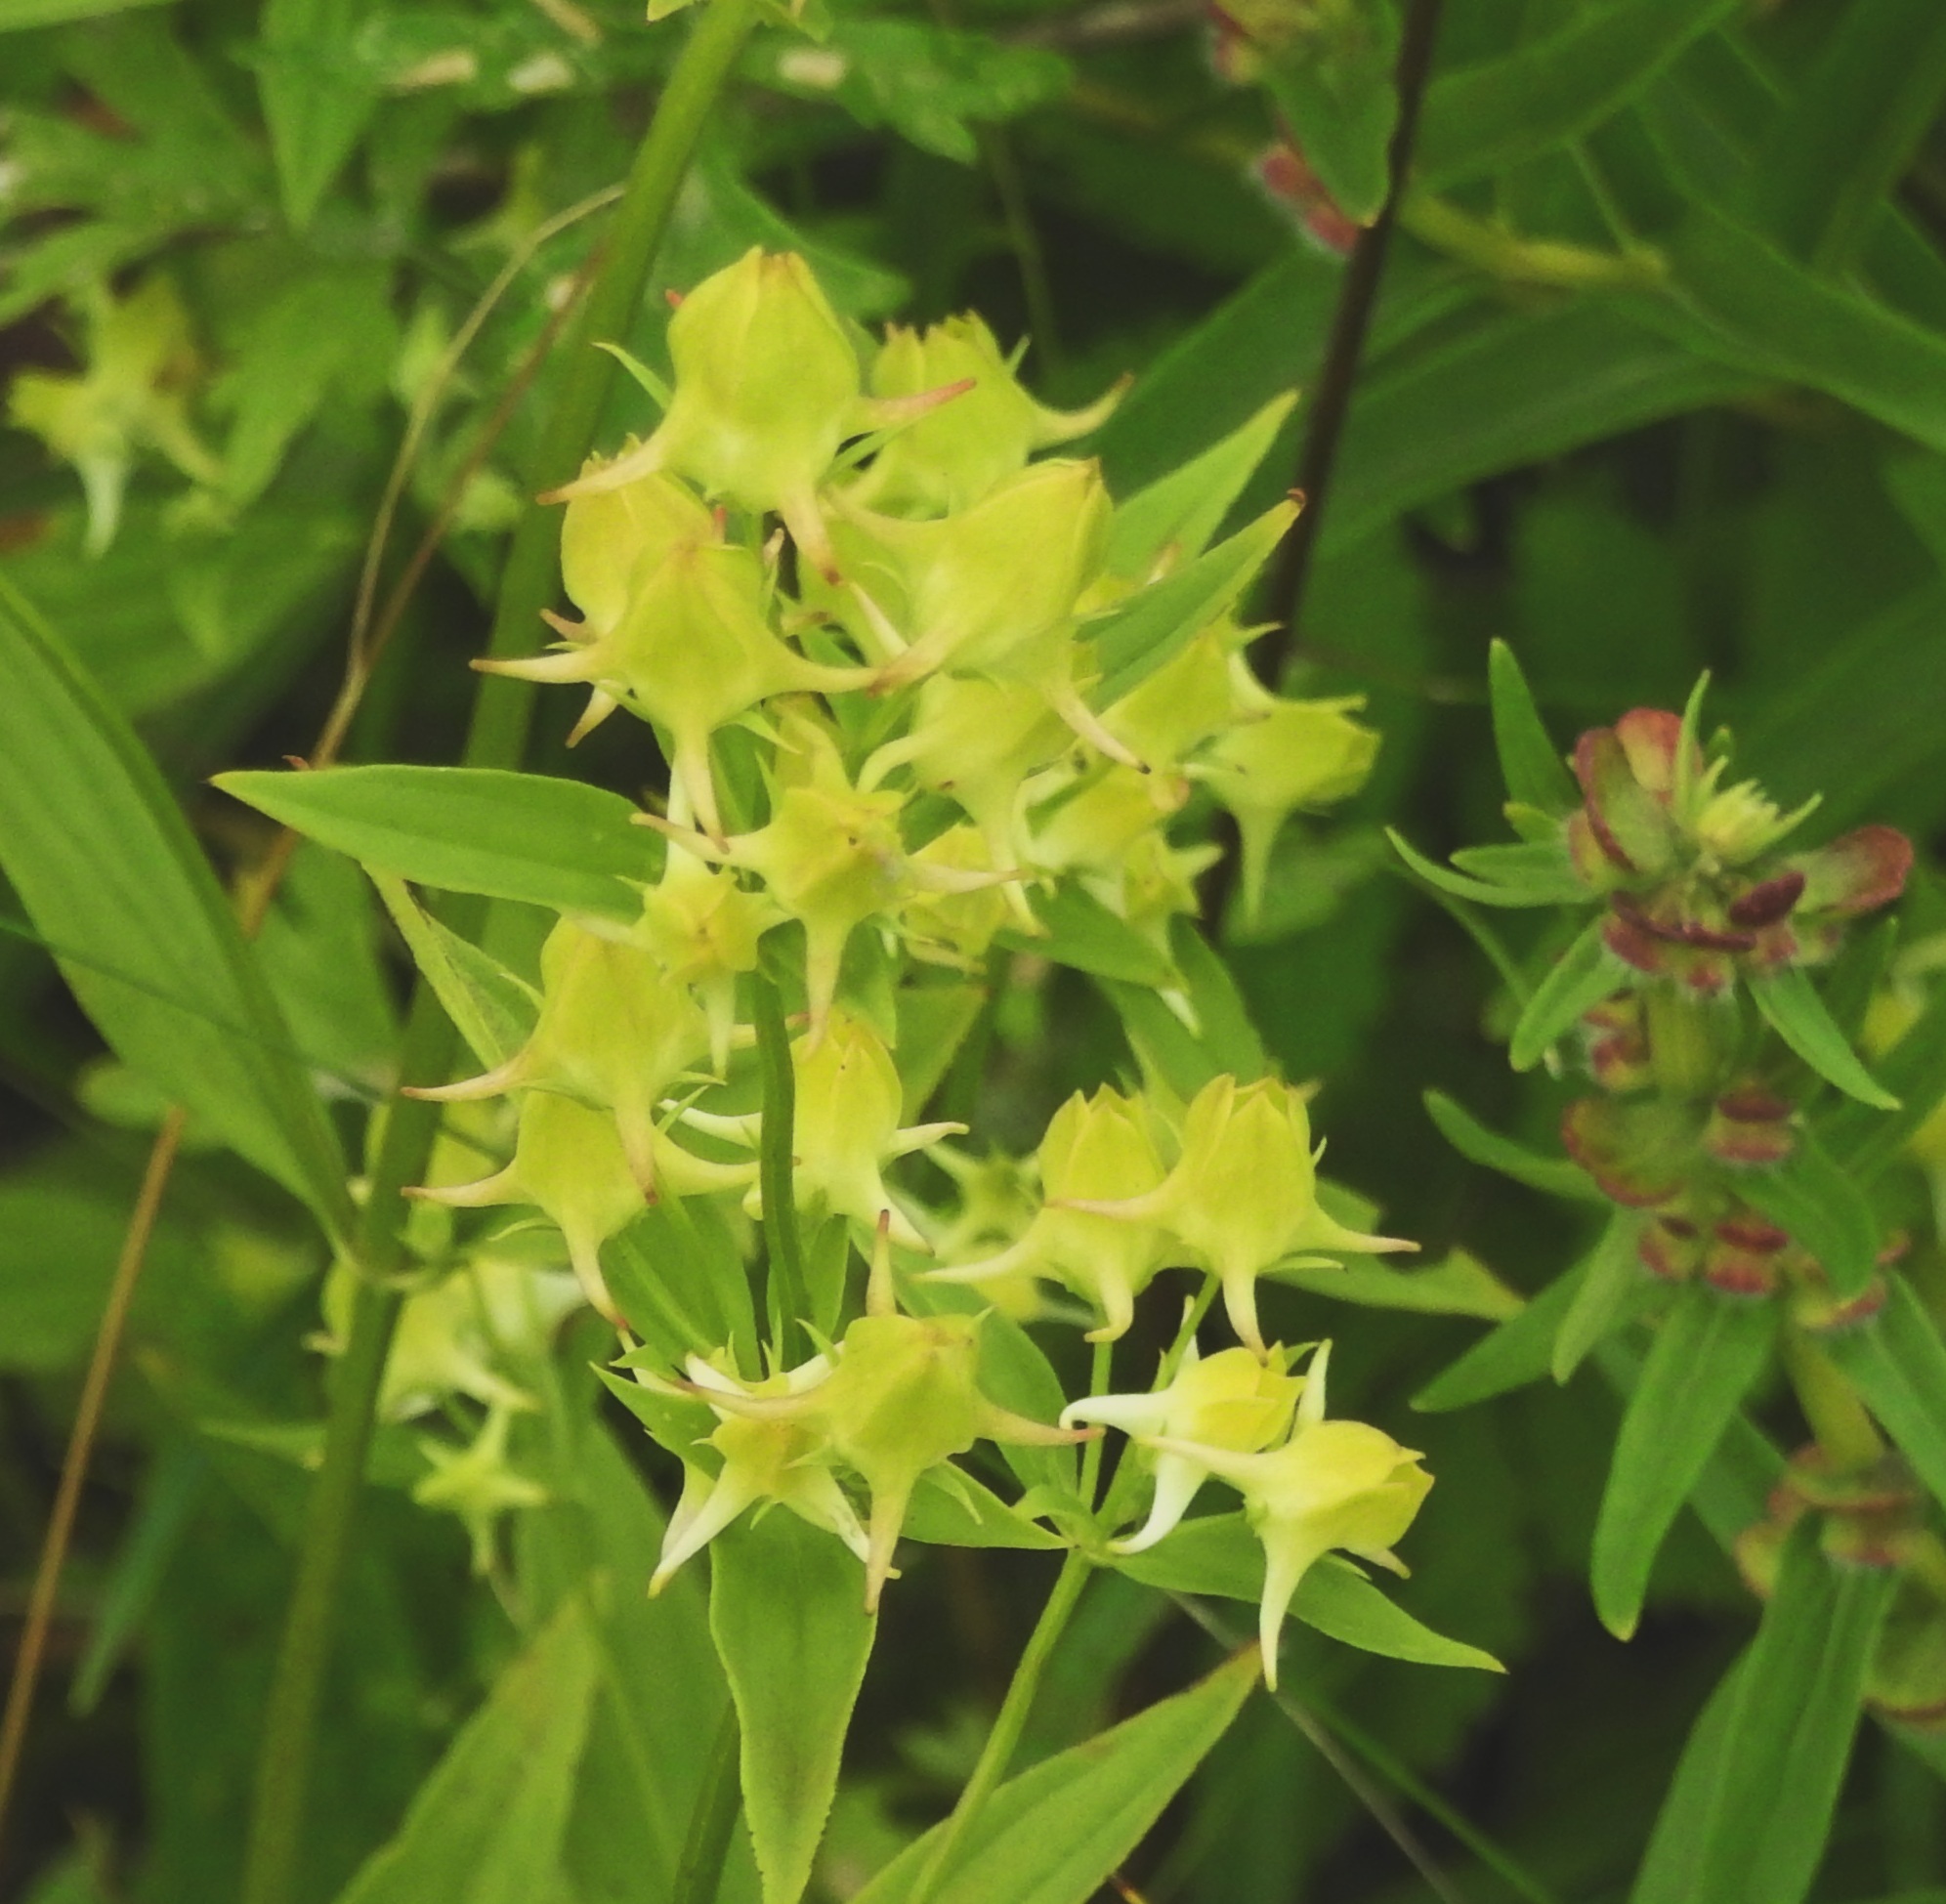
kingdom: Plantae
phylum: Tracheophyta
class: Magnoliopsida
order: Gentianales
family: Gentianaceae
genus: Halenia
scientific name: Halenia corniculata
